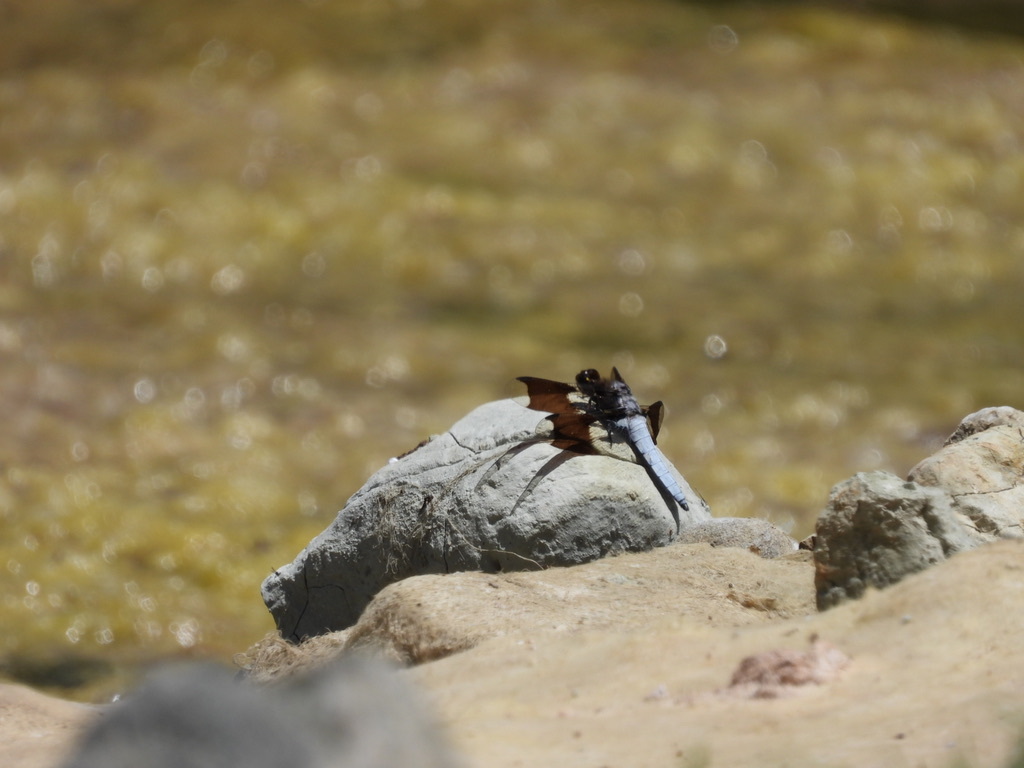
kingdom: Animalia
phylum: Arthropoda
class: Insecta
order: Odonata
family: Libellulidae
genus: Plathemis
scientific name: Plathemis lydia
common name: Common whitetail
